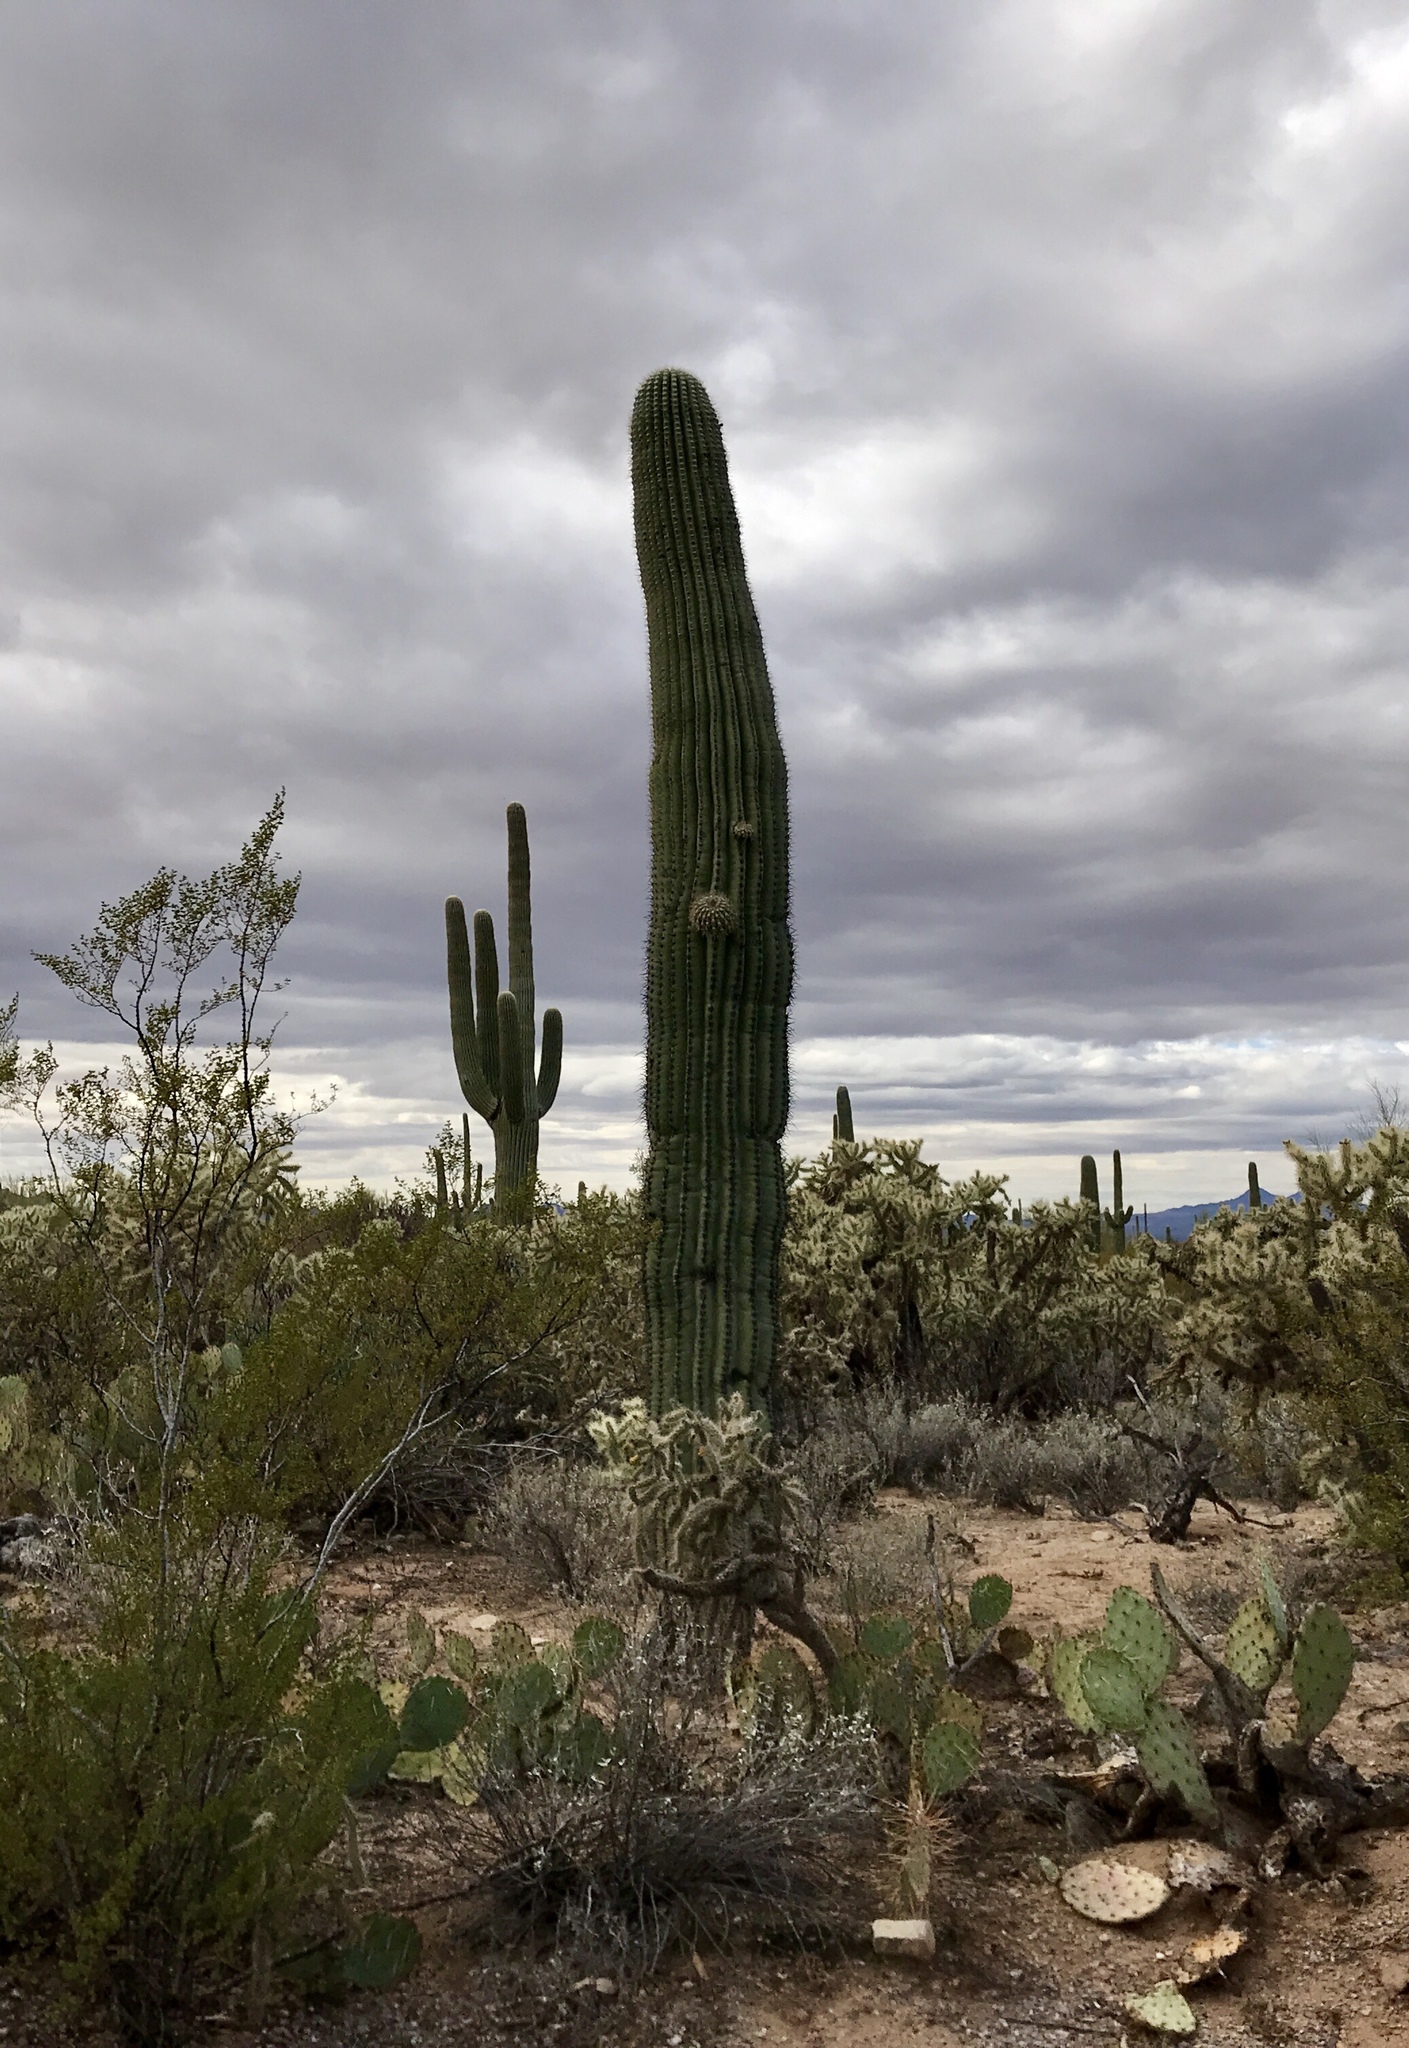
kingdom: Plantae
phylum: Tracheophyta
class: Magnoliopsida
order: Caryophyllales
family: Cactaceae
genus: Carnegiea
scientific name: Carnegiea gigantea
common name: Saguaro
